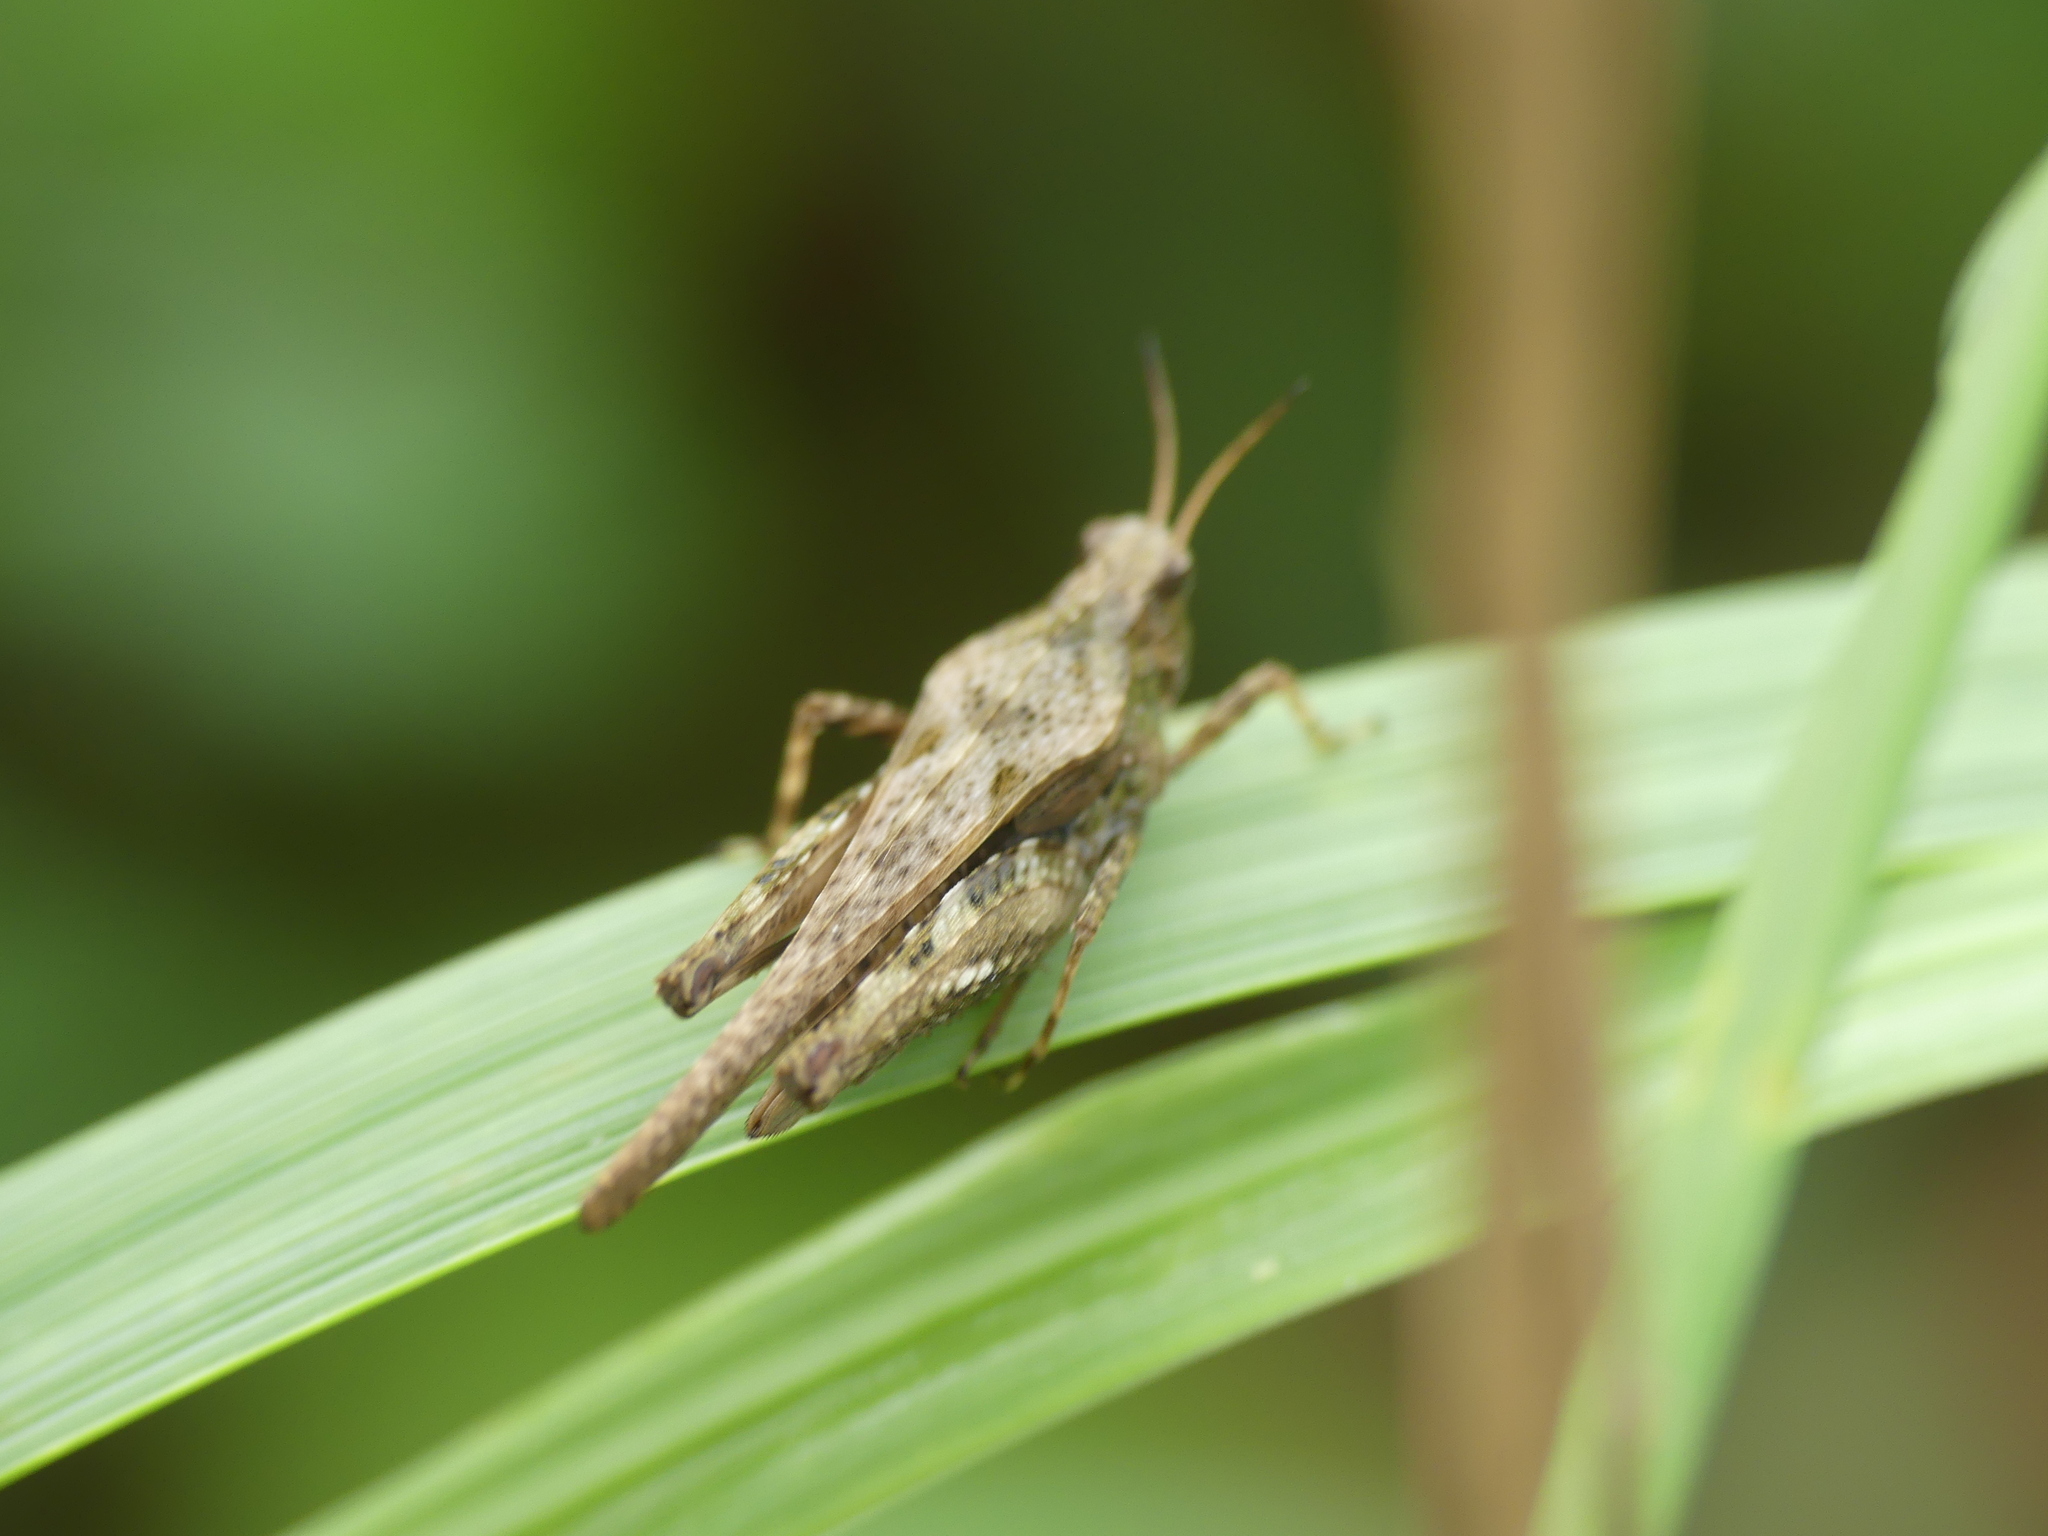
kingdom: Animalia
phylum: Arthropoda
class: Insecta
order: Orthoptera
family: Tetrigidae
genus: Tetrix
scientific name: Tetrix subulata
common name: Slender ground-hopper
